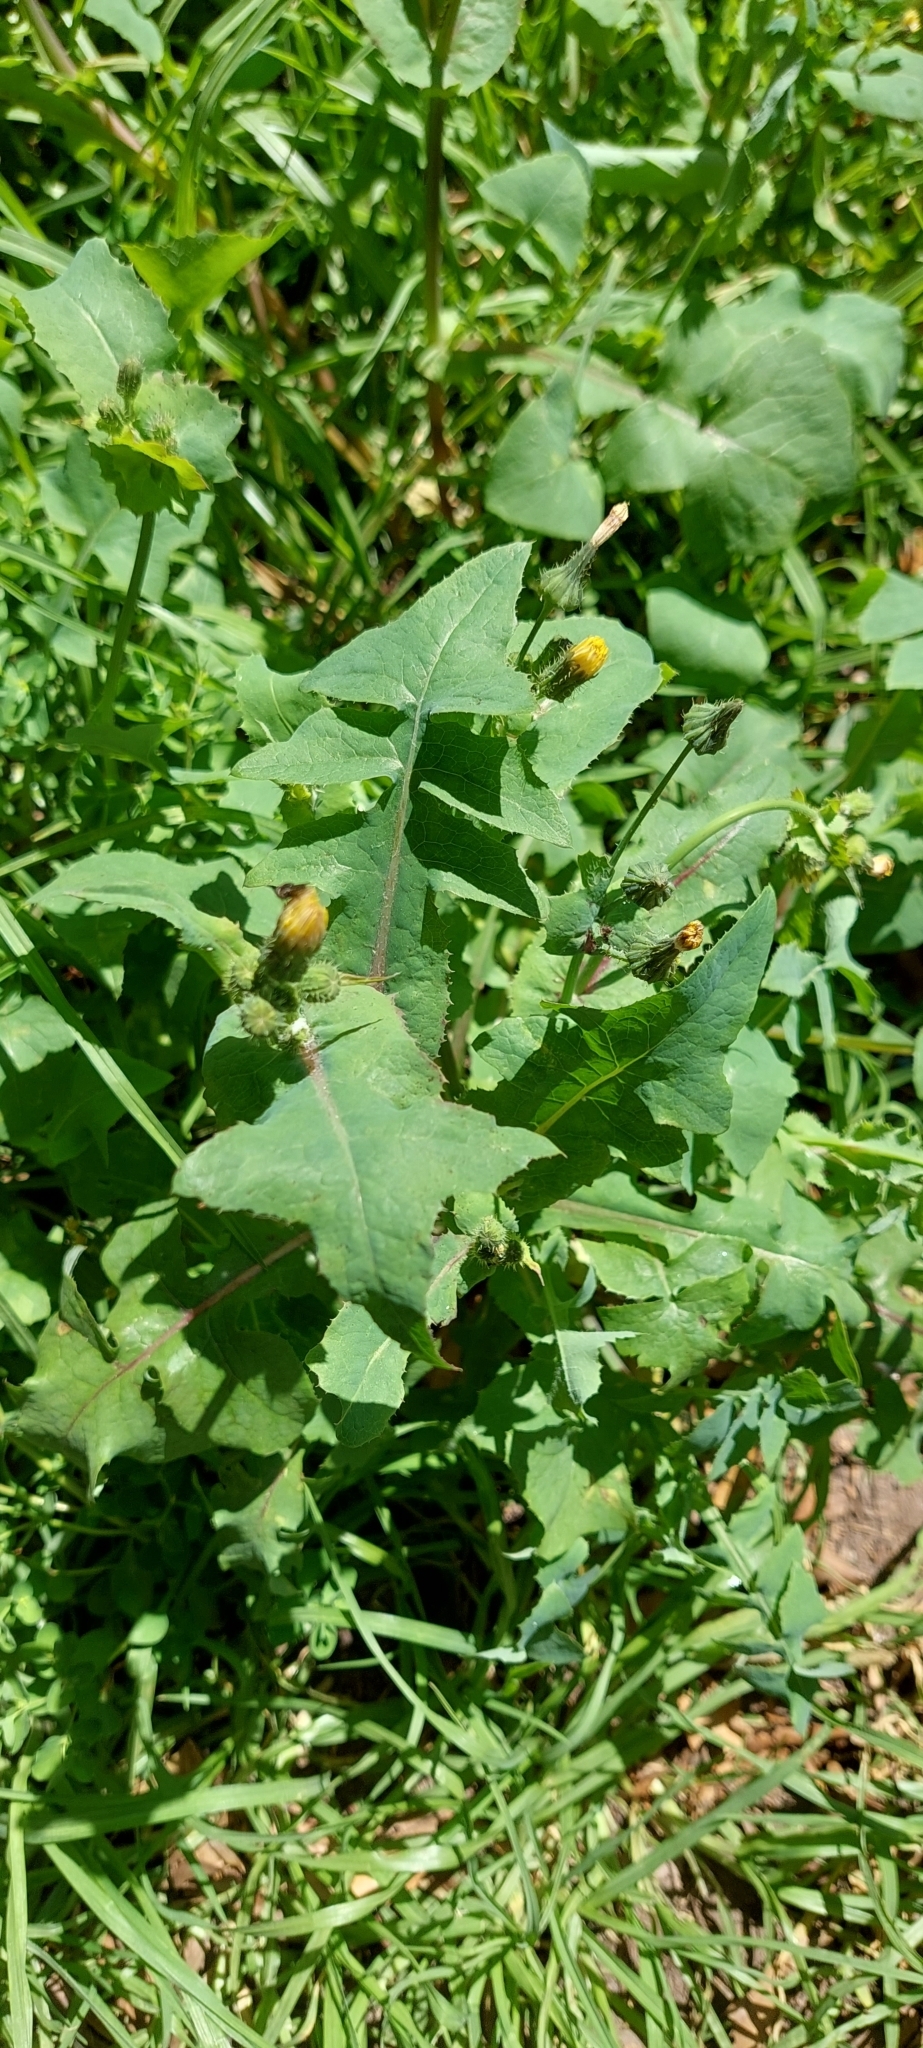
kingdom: Plantae
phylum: Tracheophyta
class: Magnoliopsida
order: Asterales
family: Asteraceae
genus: Sonchus
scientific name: Sonchus oleraceus
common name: Common sowthistle
